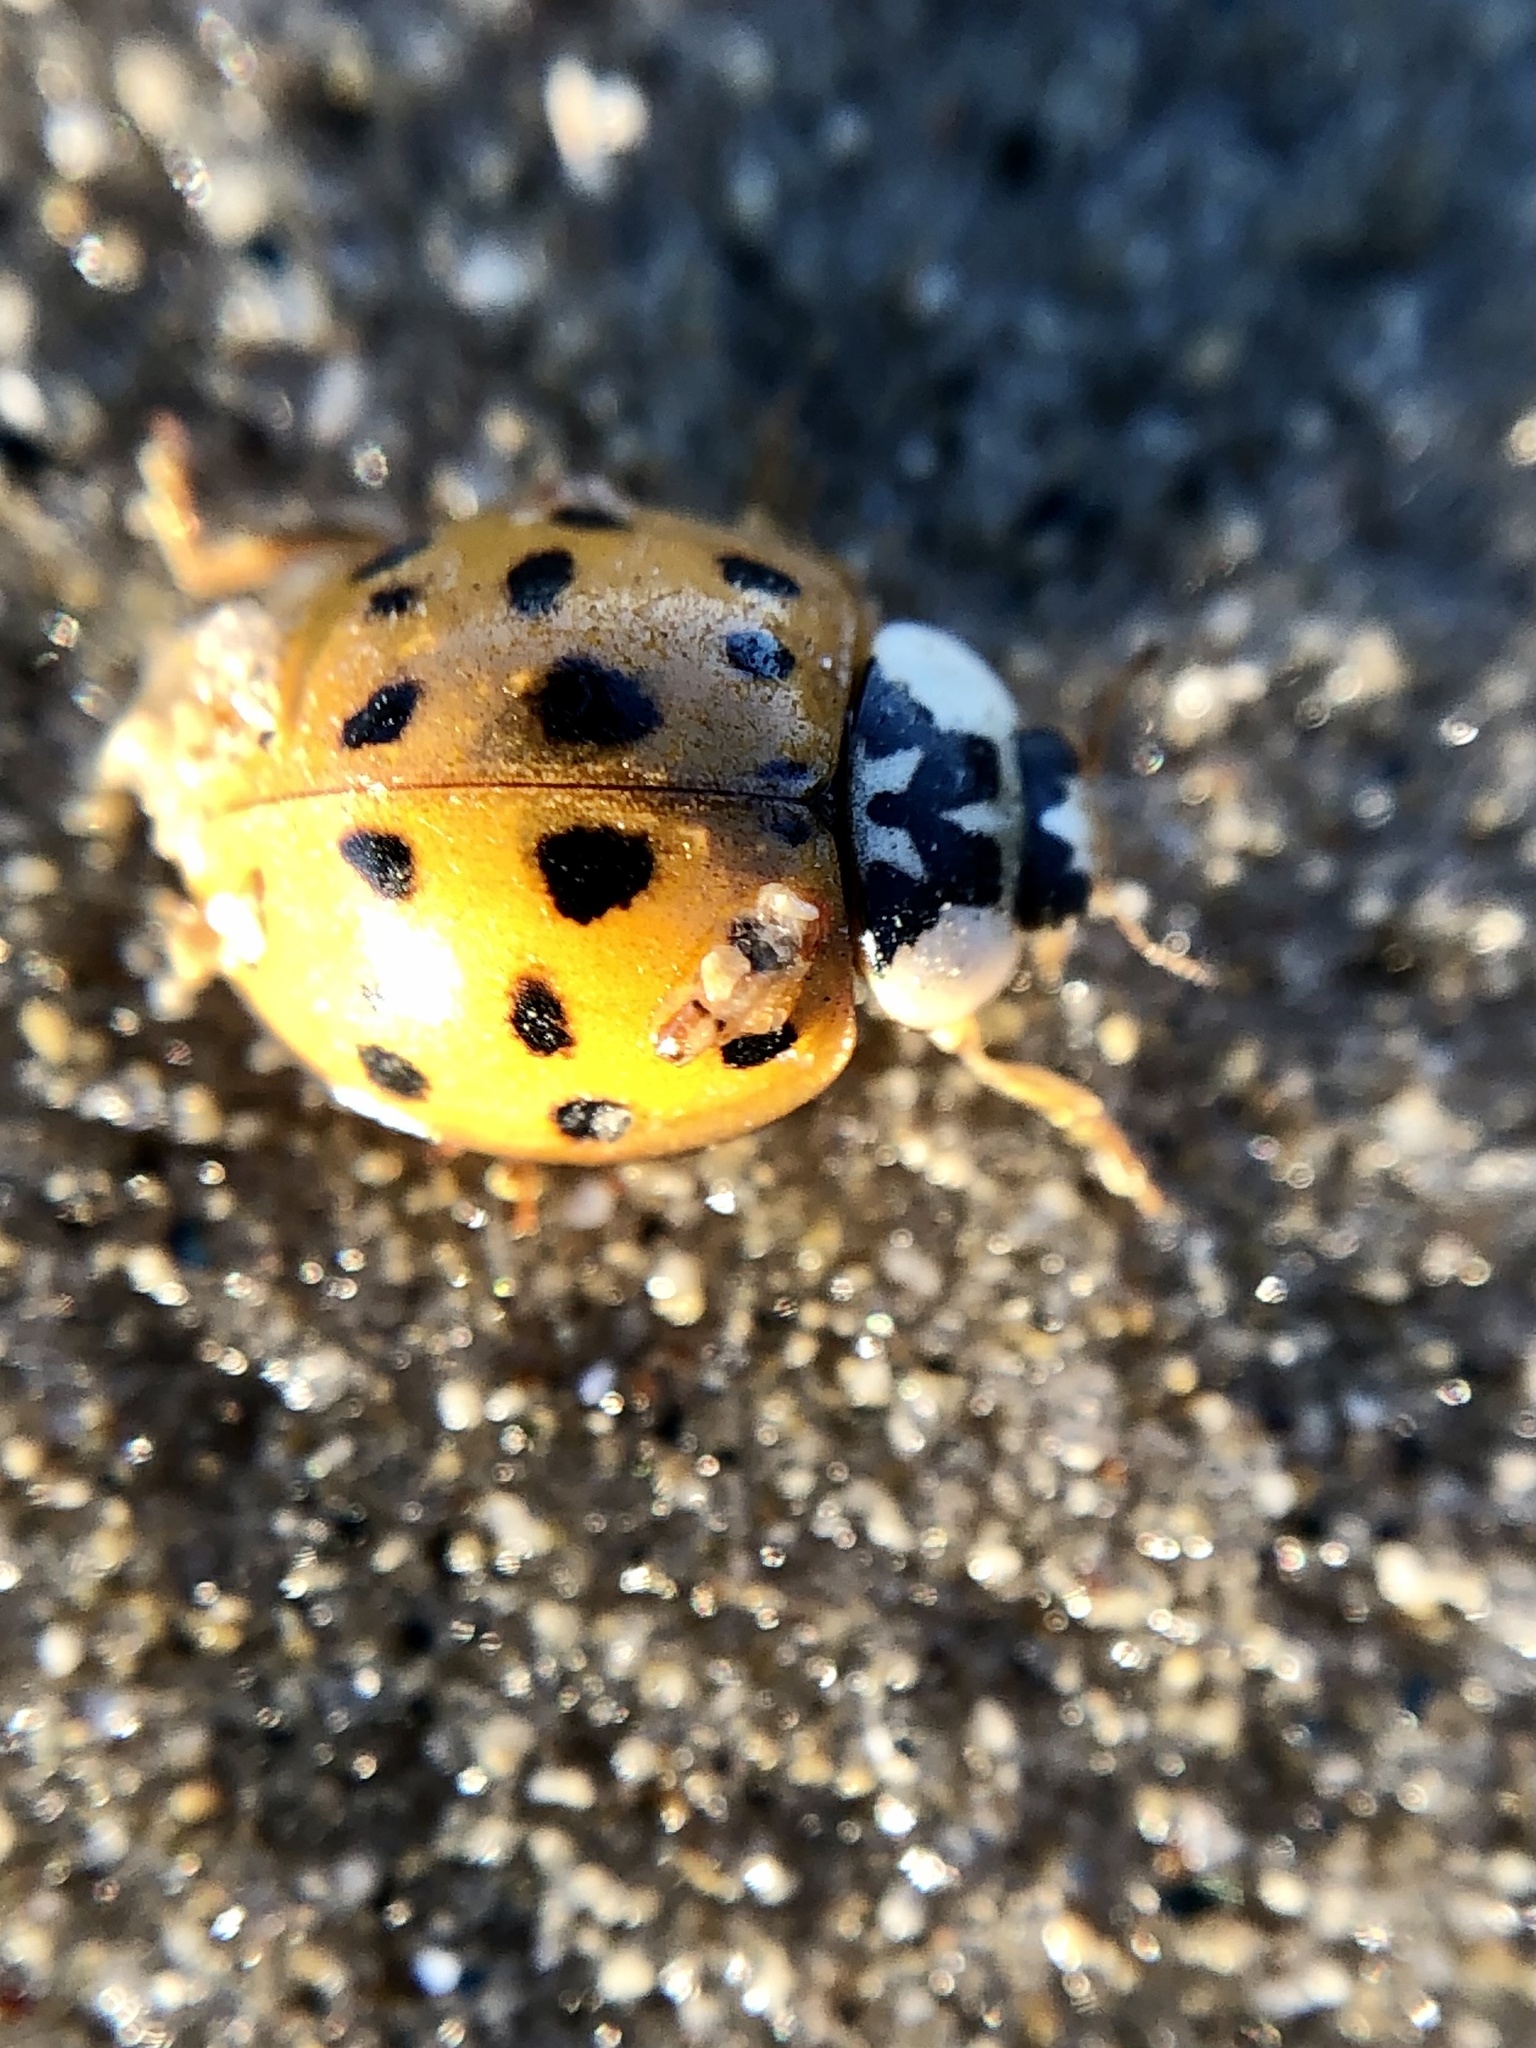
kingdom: Animalia
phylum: Arthropoda
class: Insecta
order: Coleoptera
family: Coccinellidae
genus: Harmonia
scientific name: Harmonia axyridis
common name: Harlequin ladybird
